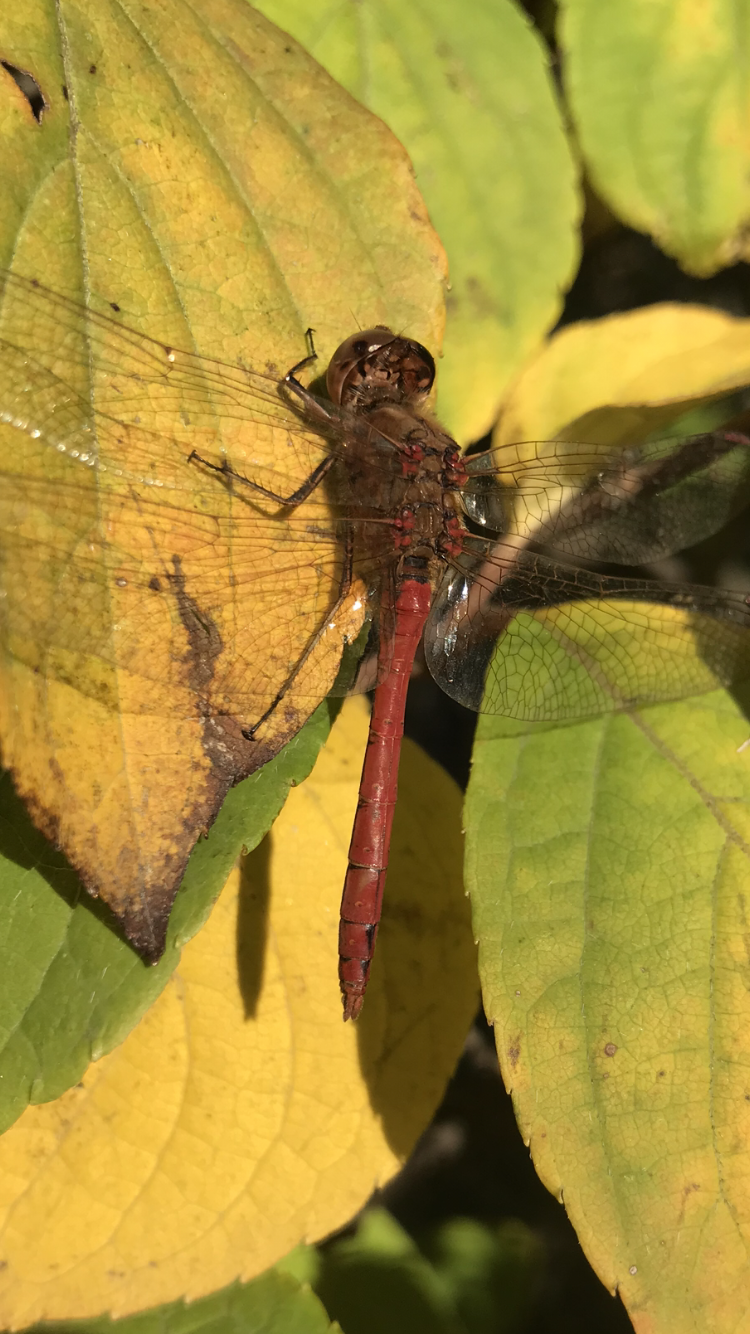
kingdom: Animalia
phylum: Arthropoda
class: Insecta
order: Odonata
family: Libellulidae
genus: Sympetrum
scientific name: Sympetrum vulgatum
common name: Vagrant darter
